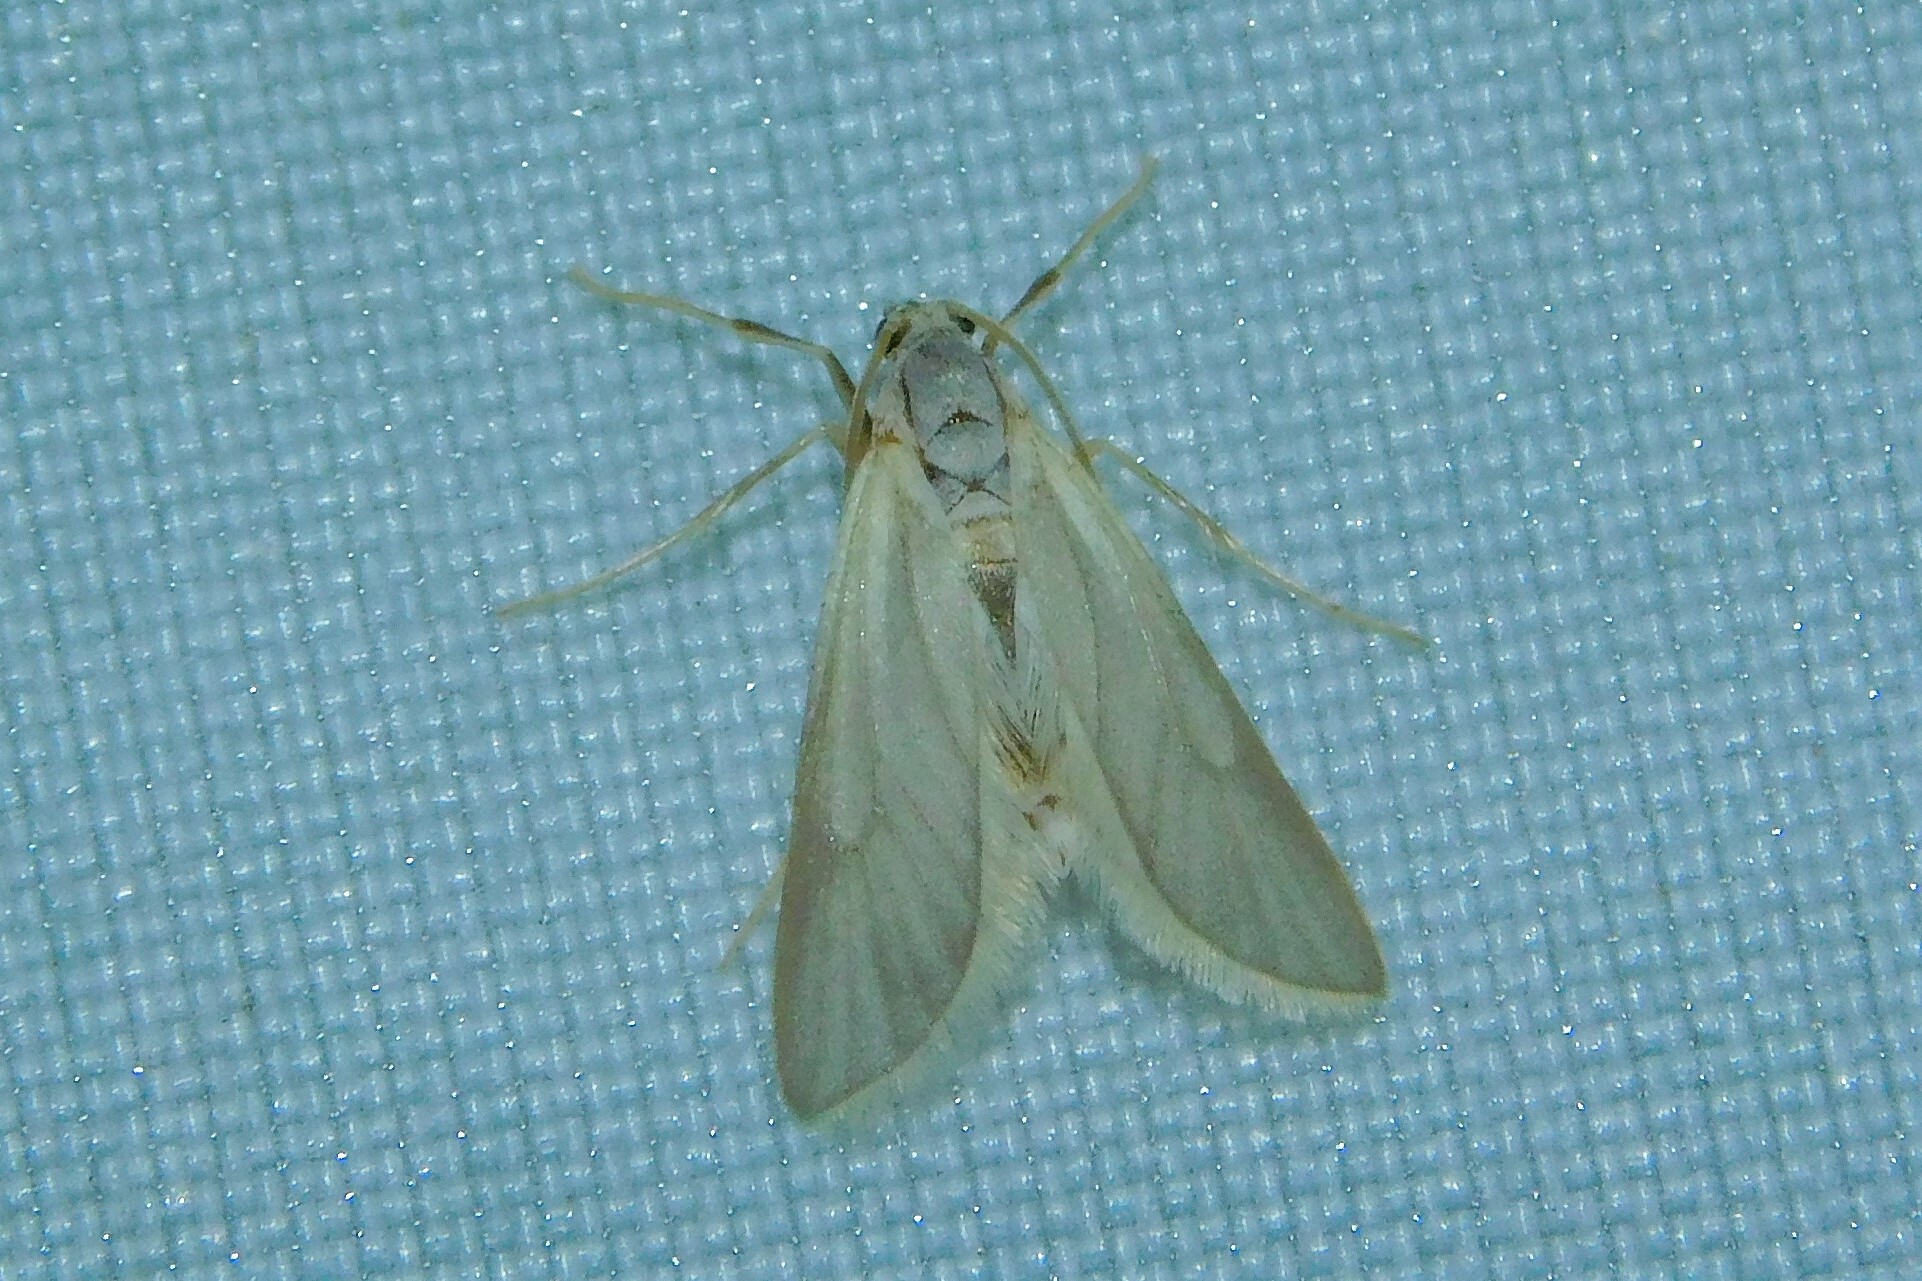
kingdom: Animalia
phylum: Arthropoda
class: Insecta
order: Lepidoptera
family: Crambidae
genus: Acentria
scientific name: Acentria ephemerella
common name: European water moth
